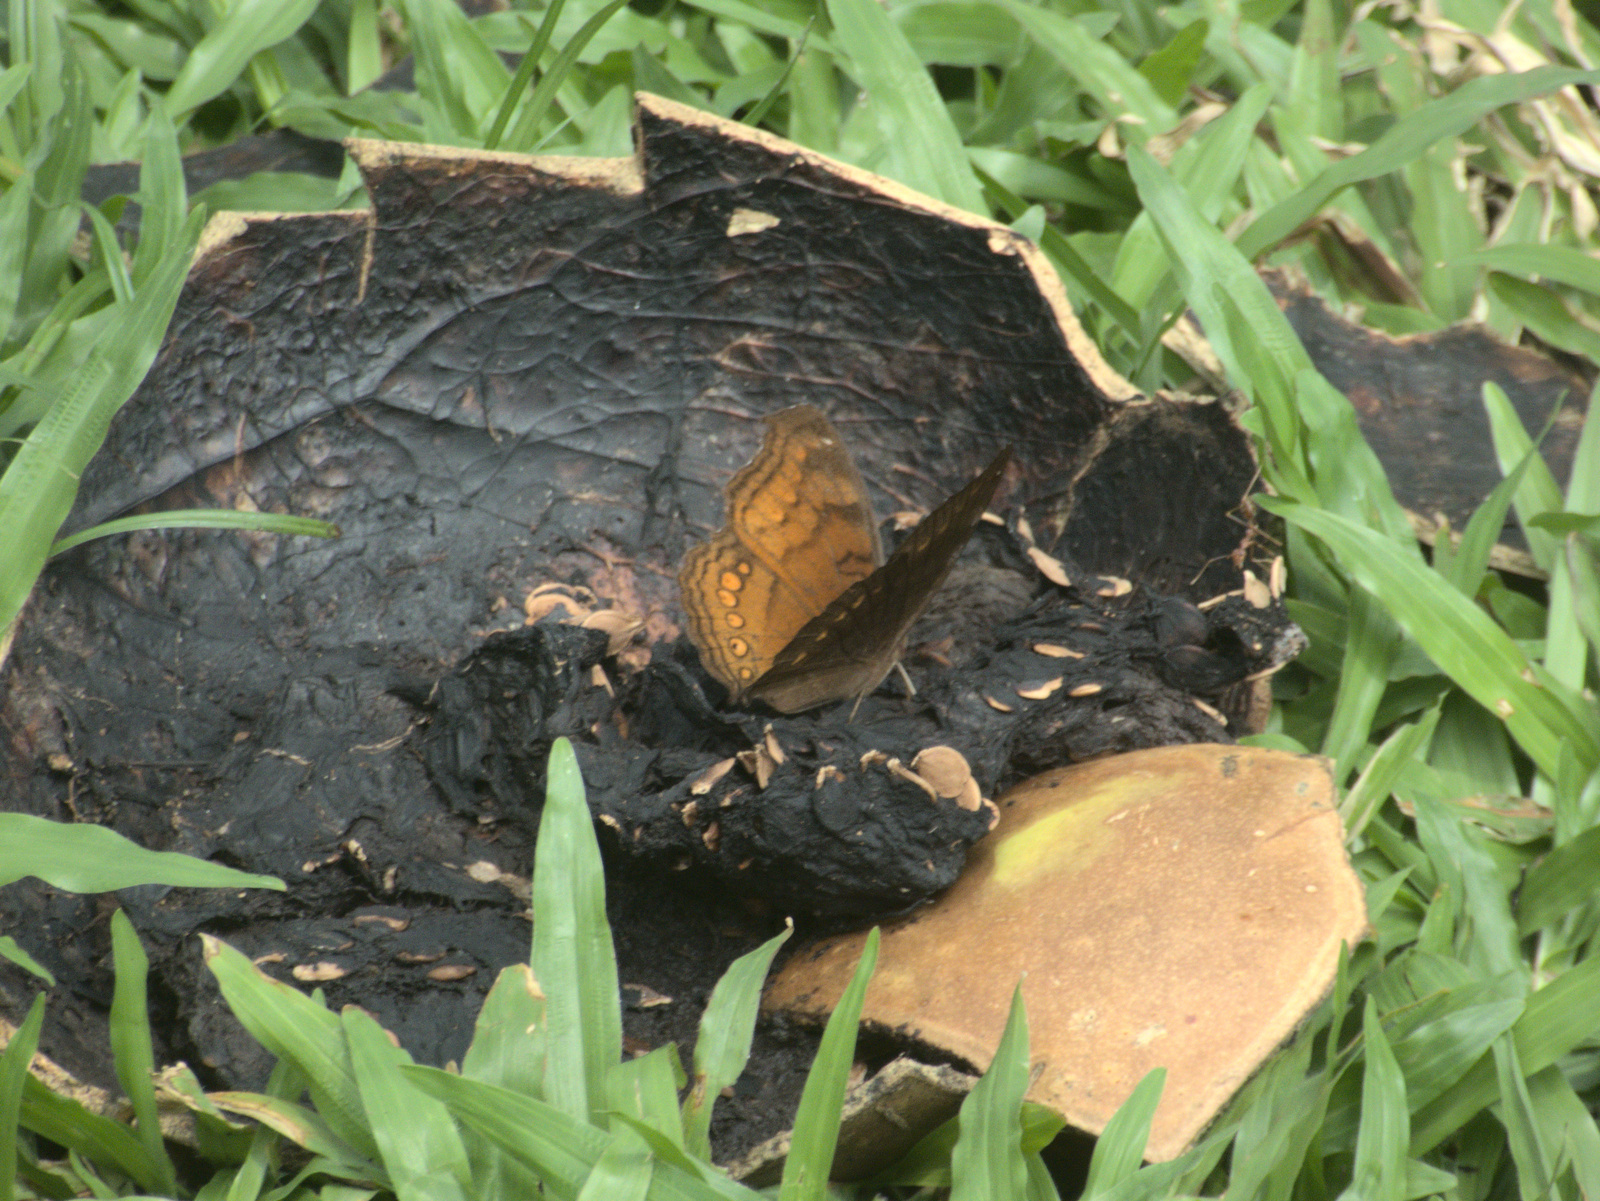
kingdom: Animalia
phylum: Arthropoda
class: Insecta
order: Lepidoptera
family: Nymphalidae
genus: Junonia
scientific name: Junonia hedonia
